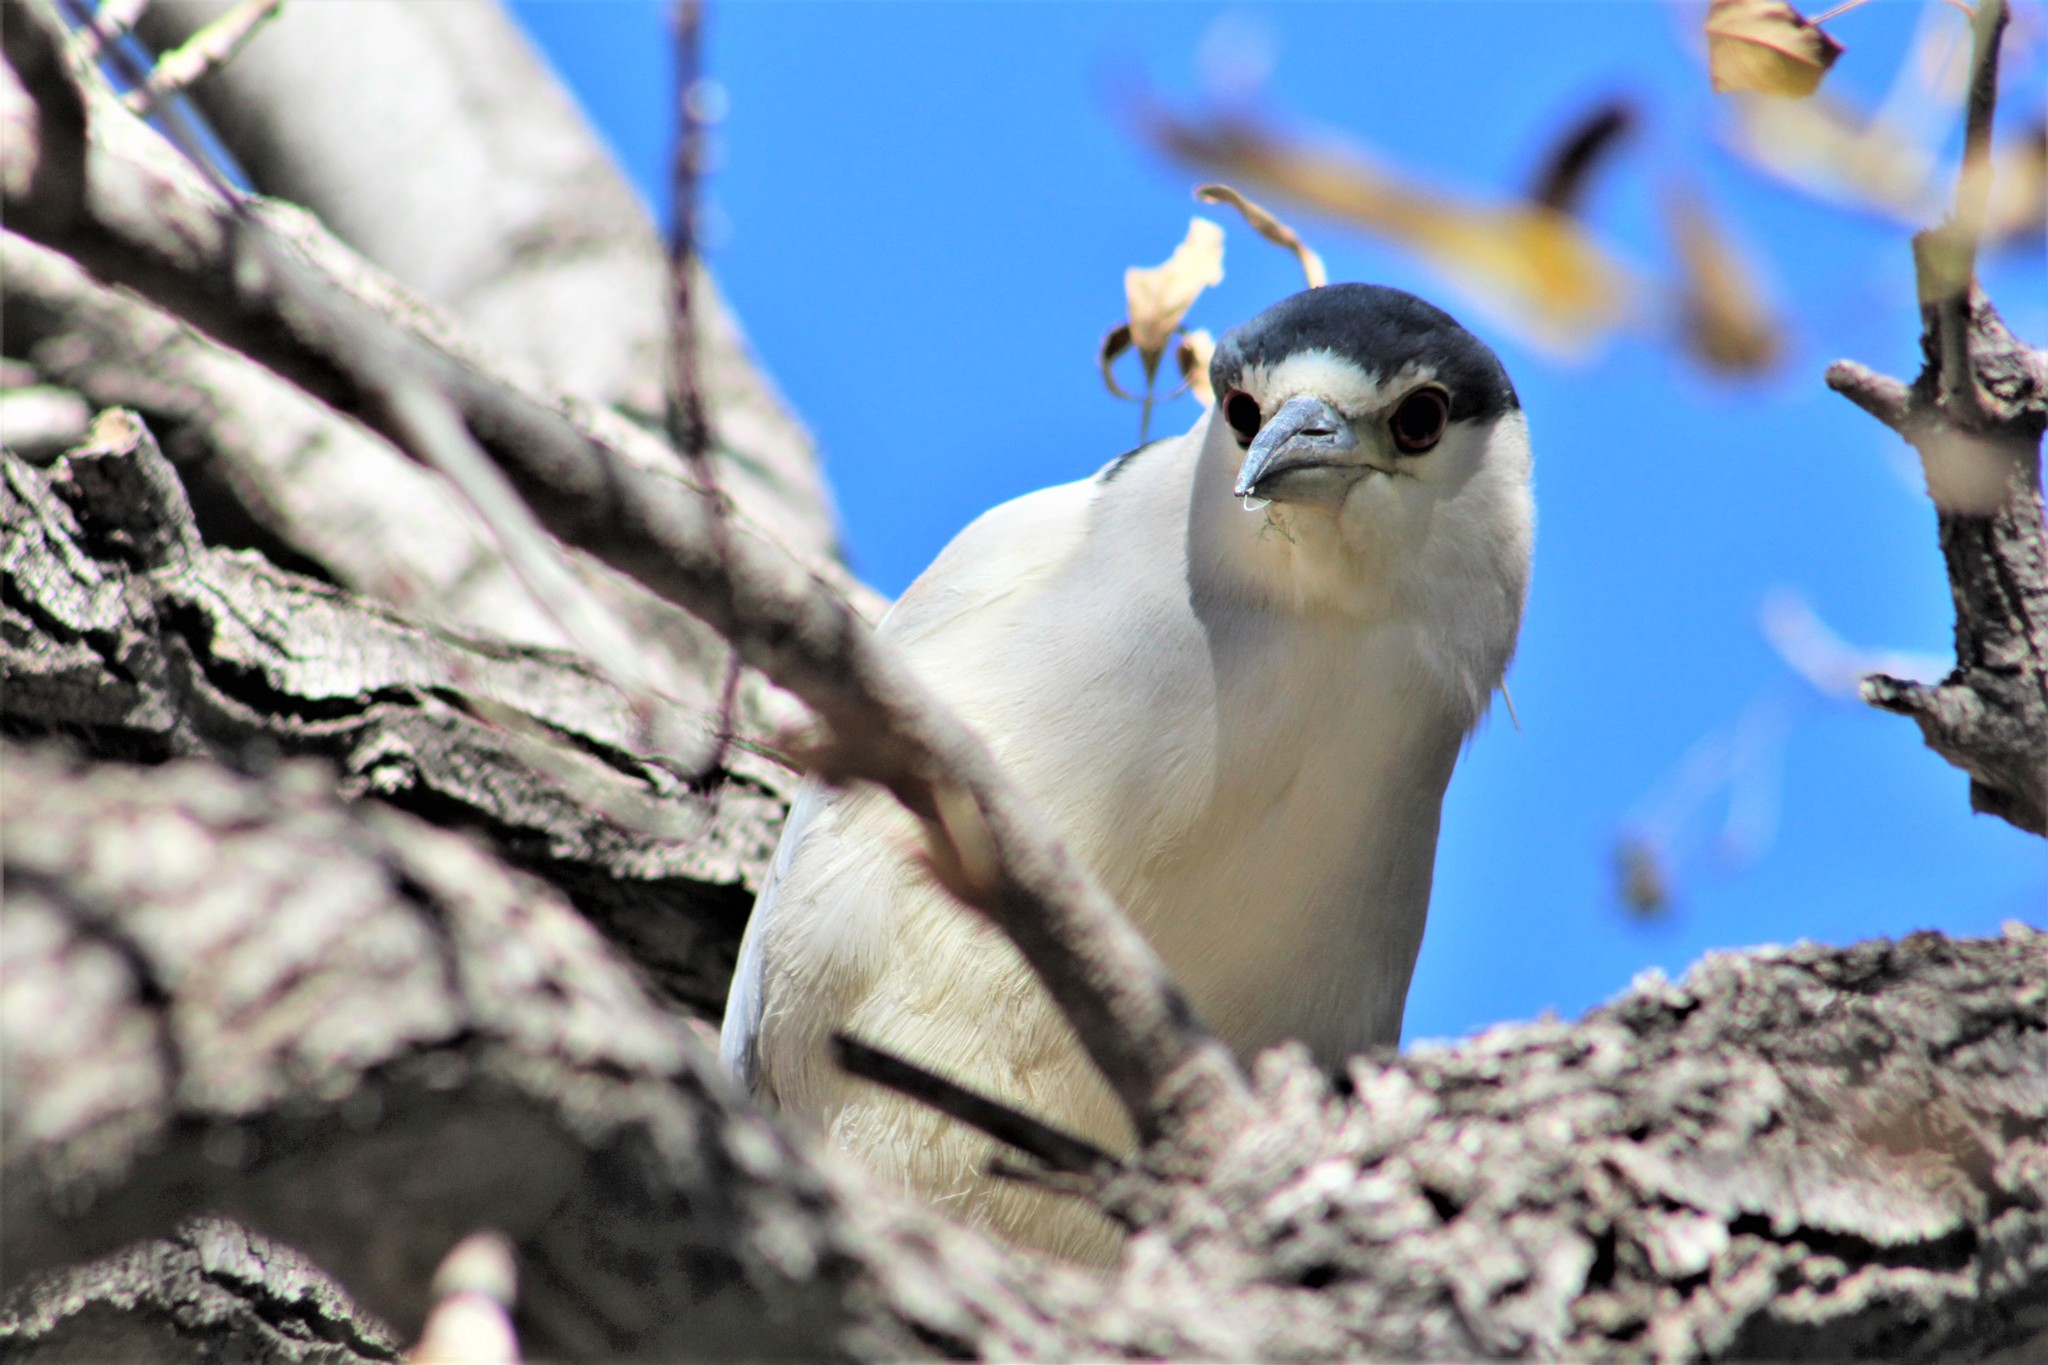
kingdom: Animalia
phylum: Chordata
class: Aves
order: Pelecaniformes
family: Ardeidae
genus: Nycticorax
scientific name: Nycticorax nycticorax
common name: Black-crowned night heron
